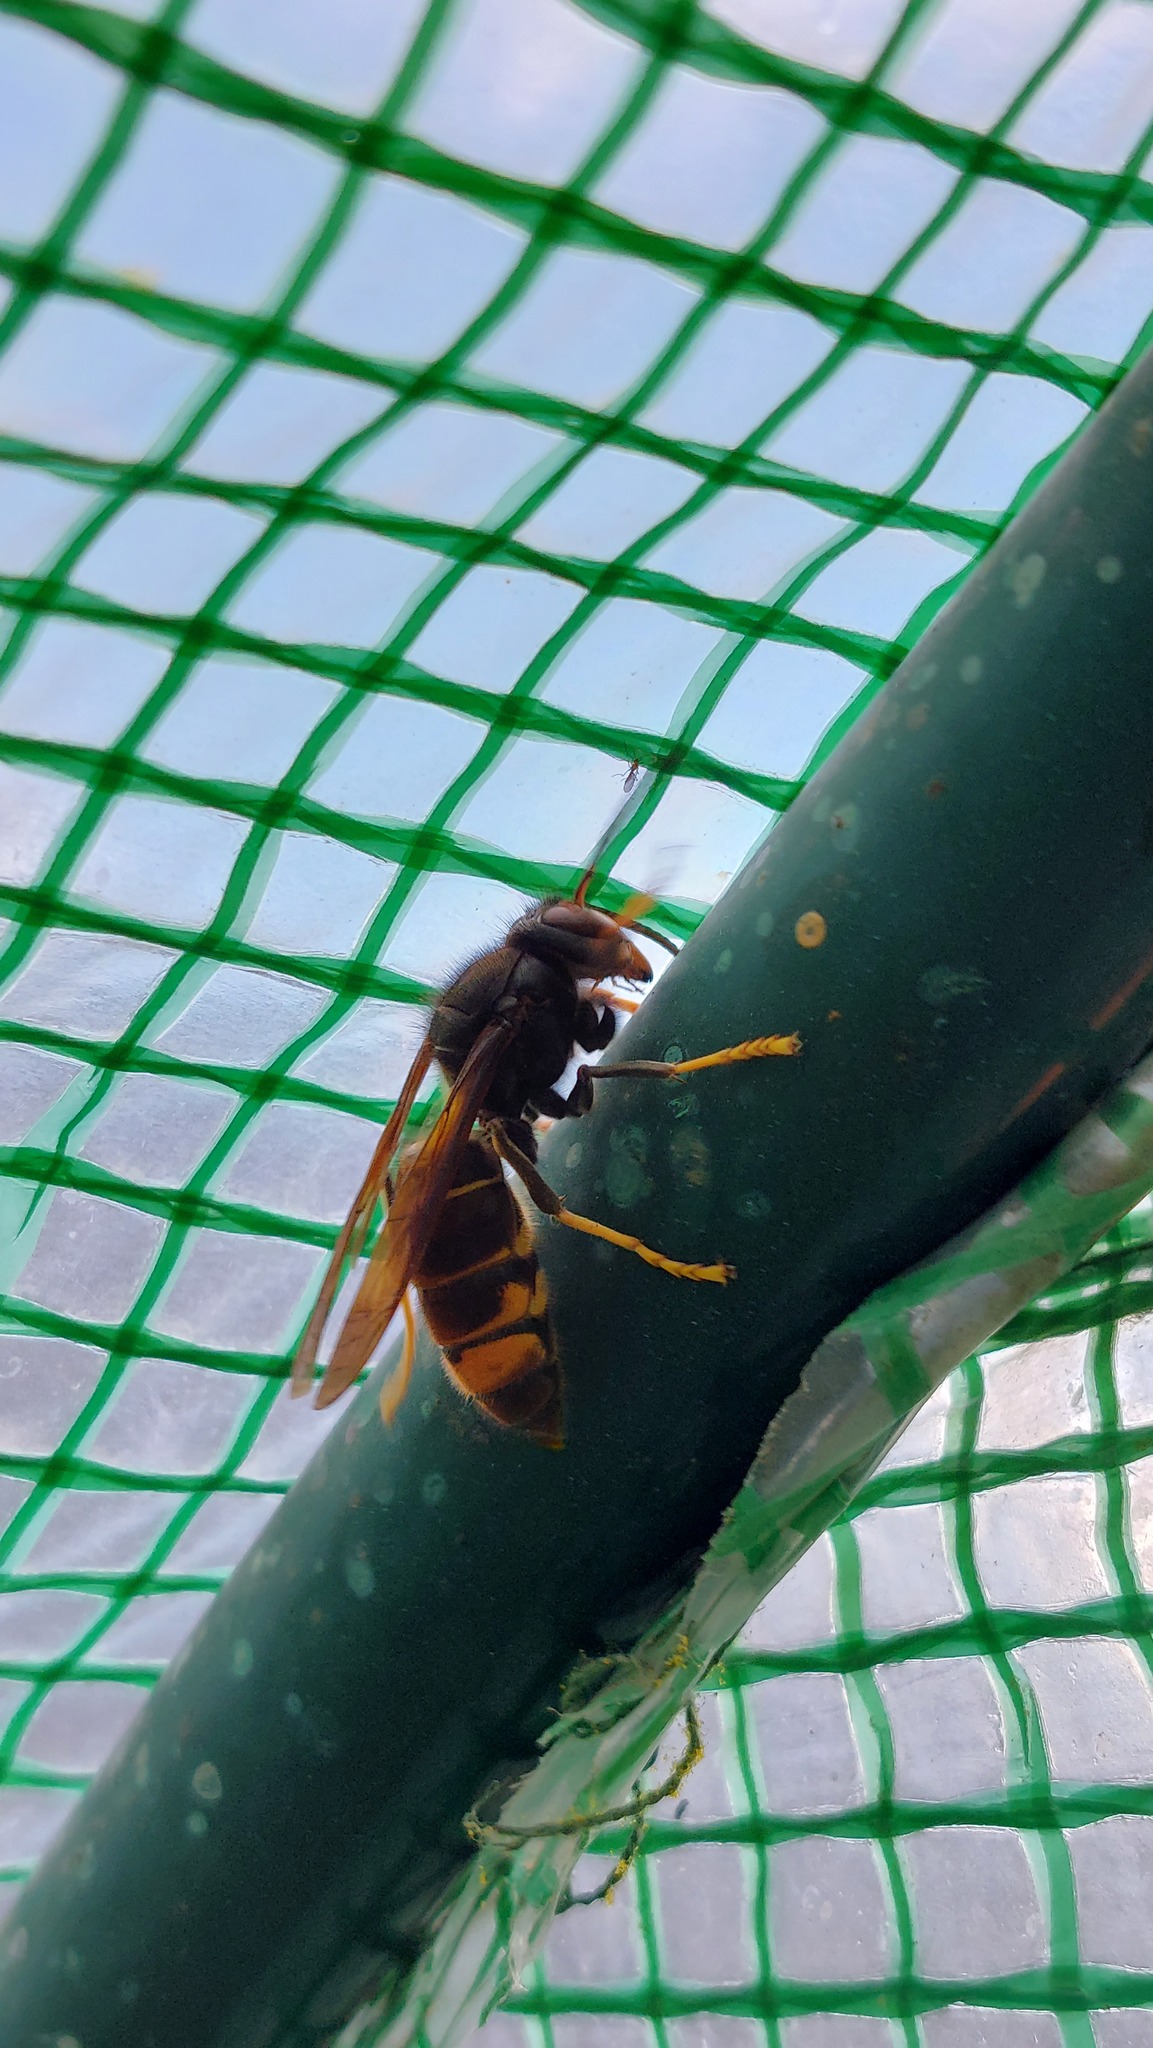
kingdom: Animalia
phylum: Arthropoda
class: Insecta
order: Hymenoptera
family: Vespidae
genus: Vespa
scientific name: Vespa velutina
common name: Asian hornet
